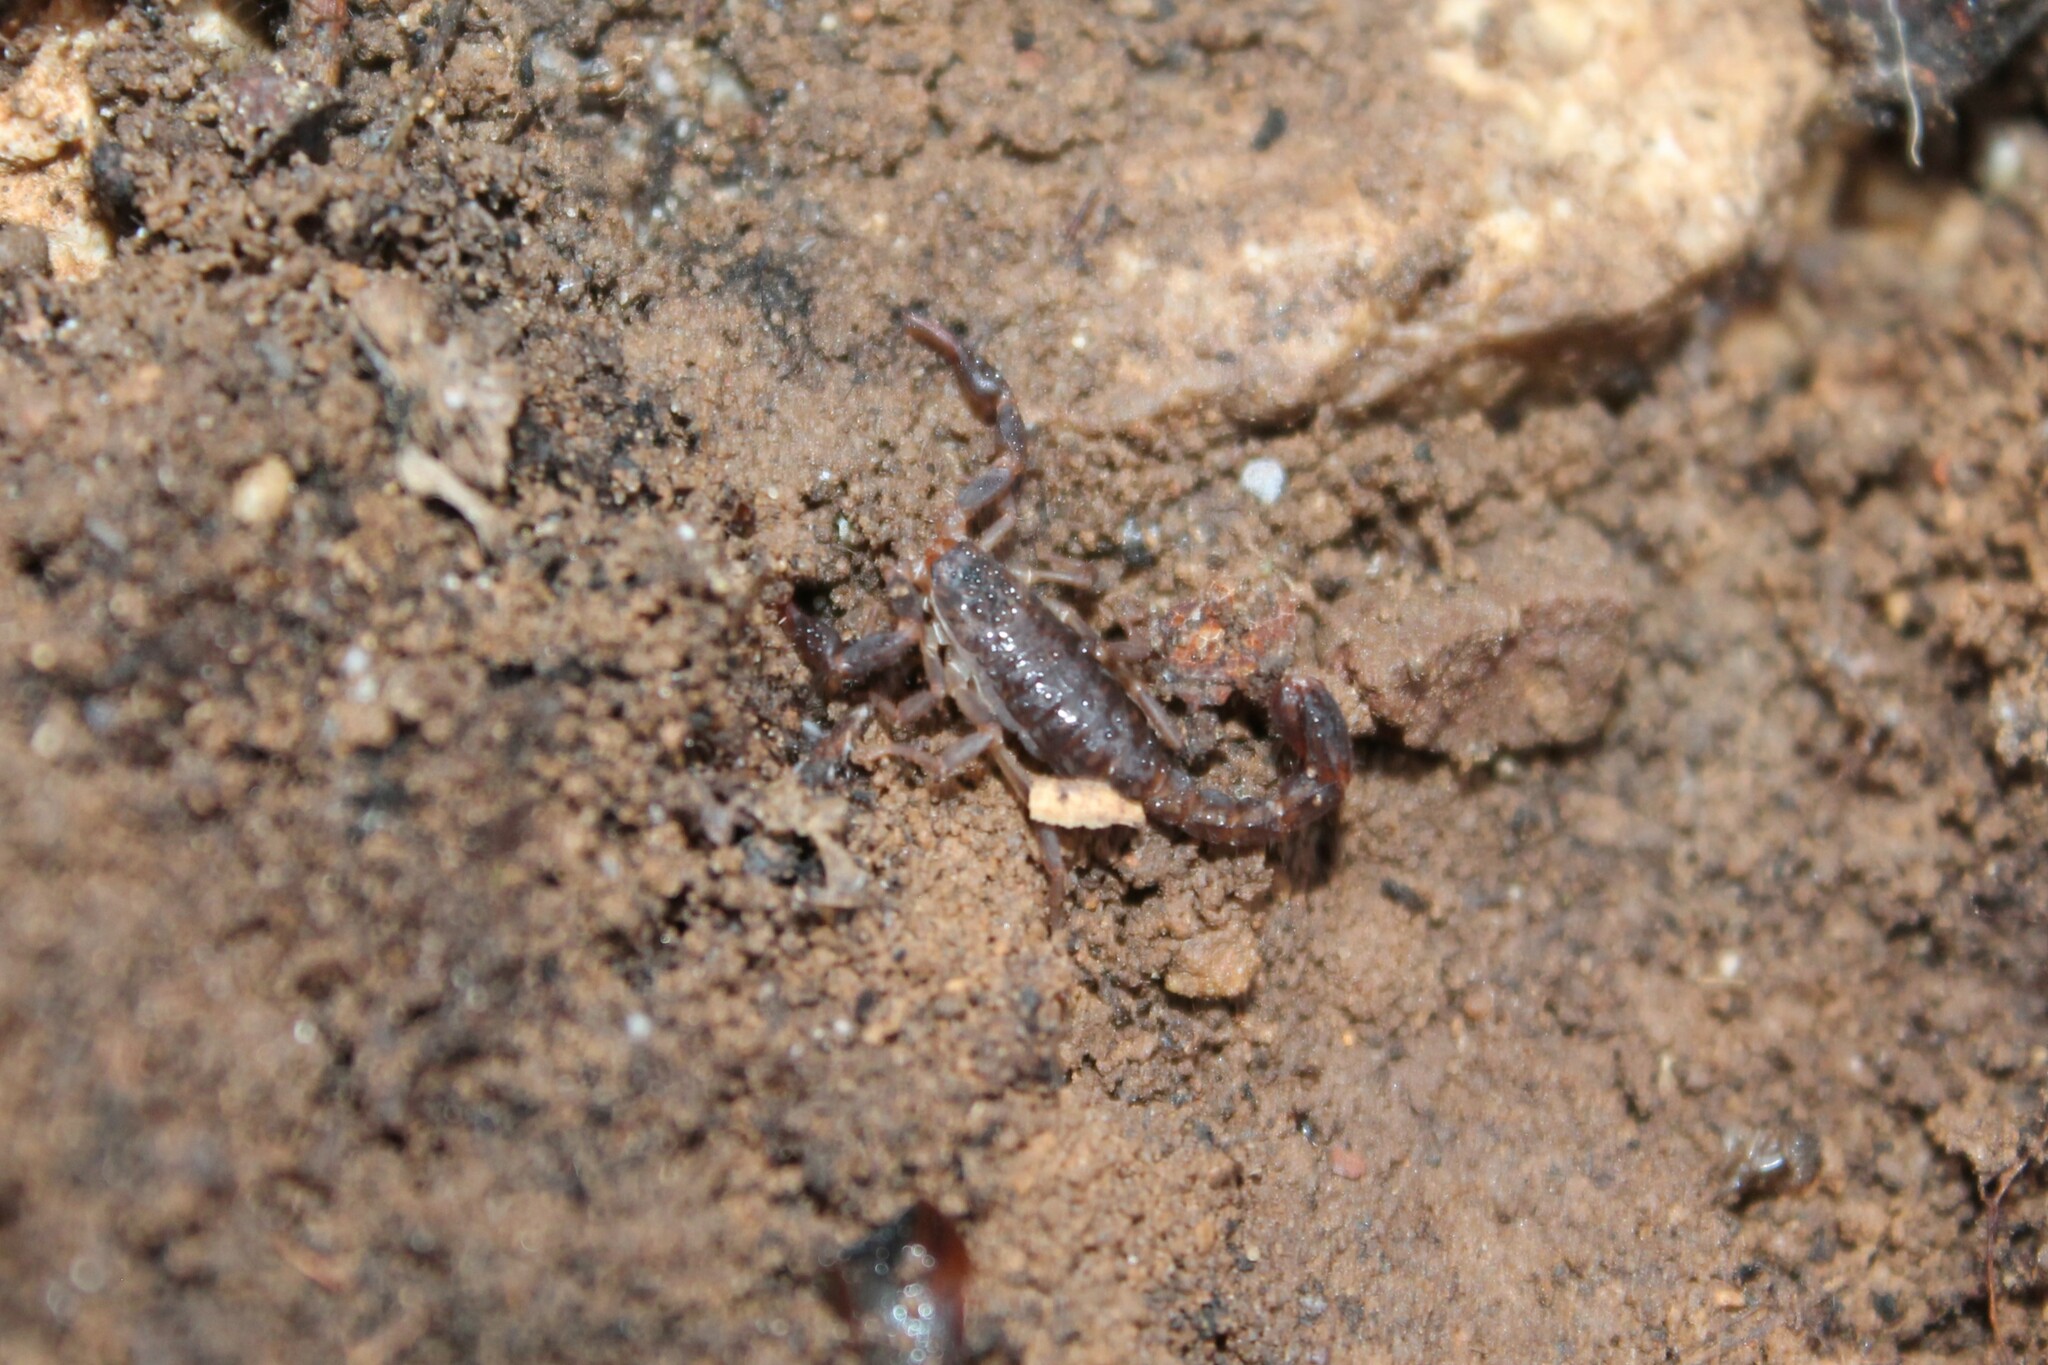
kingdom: Animalia
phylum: Arthropoda
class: Arachnida
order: Scorpiones
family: Vaejovidae
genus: Vaejovis
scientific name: Vaejovis carolinianus
